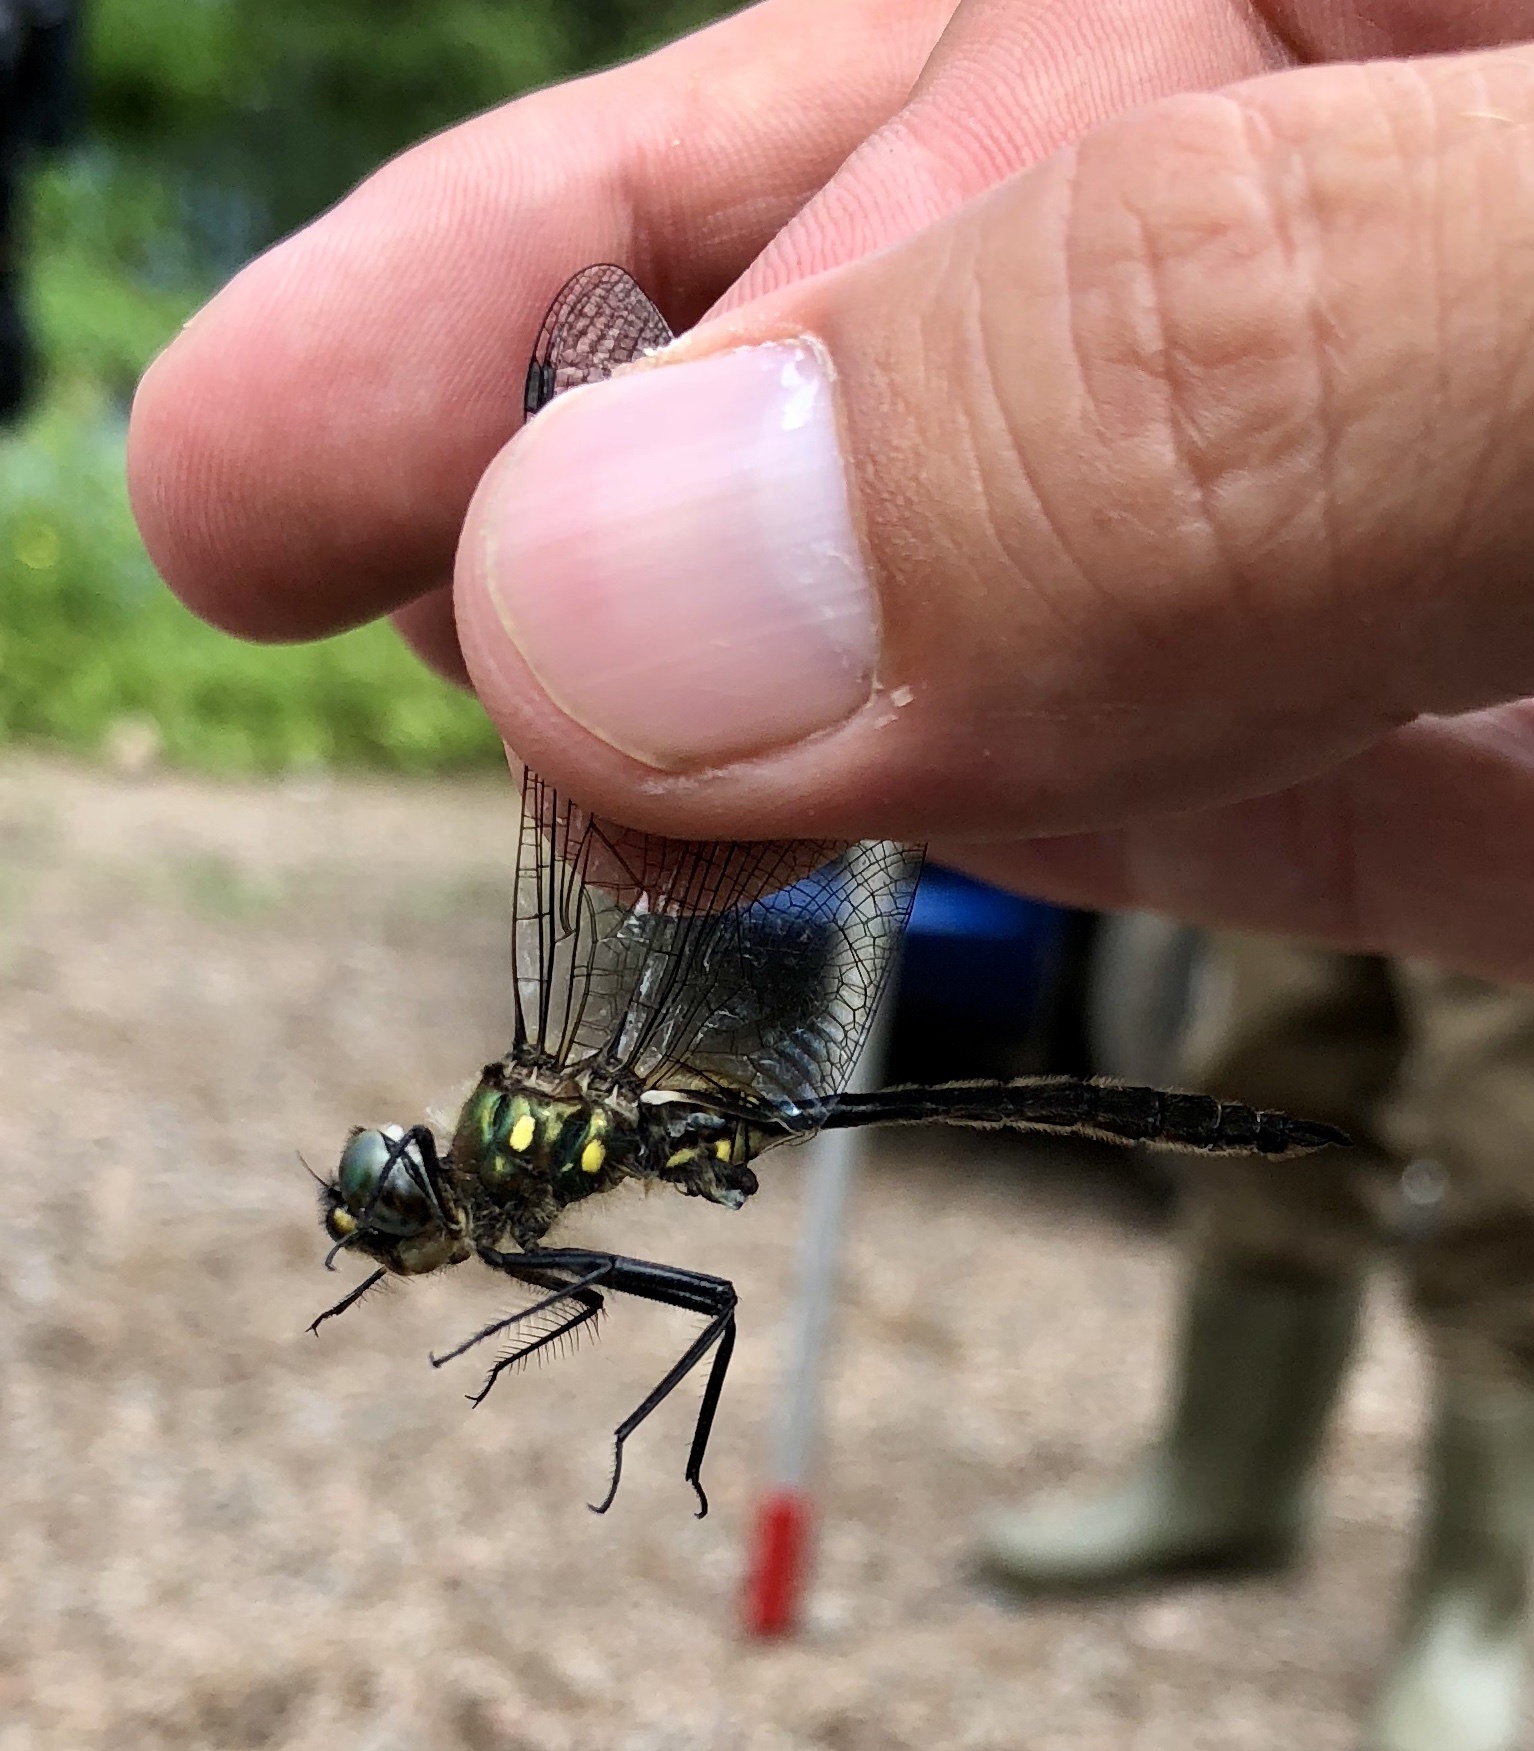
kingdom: Animalia
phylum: Arthropoda
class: Insecta
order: Odonata
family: Corduliidae
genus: Somatochlora
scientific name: Somatochlora minor
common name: Ocellated emerald
